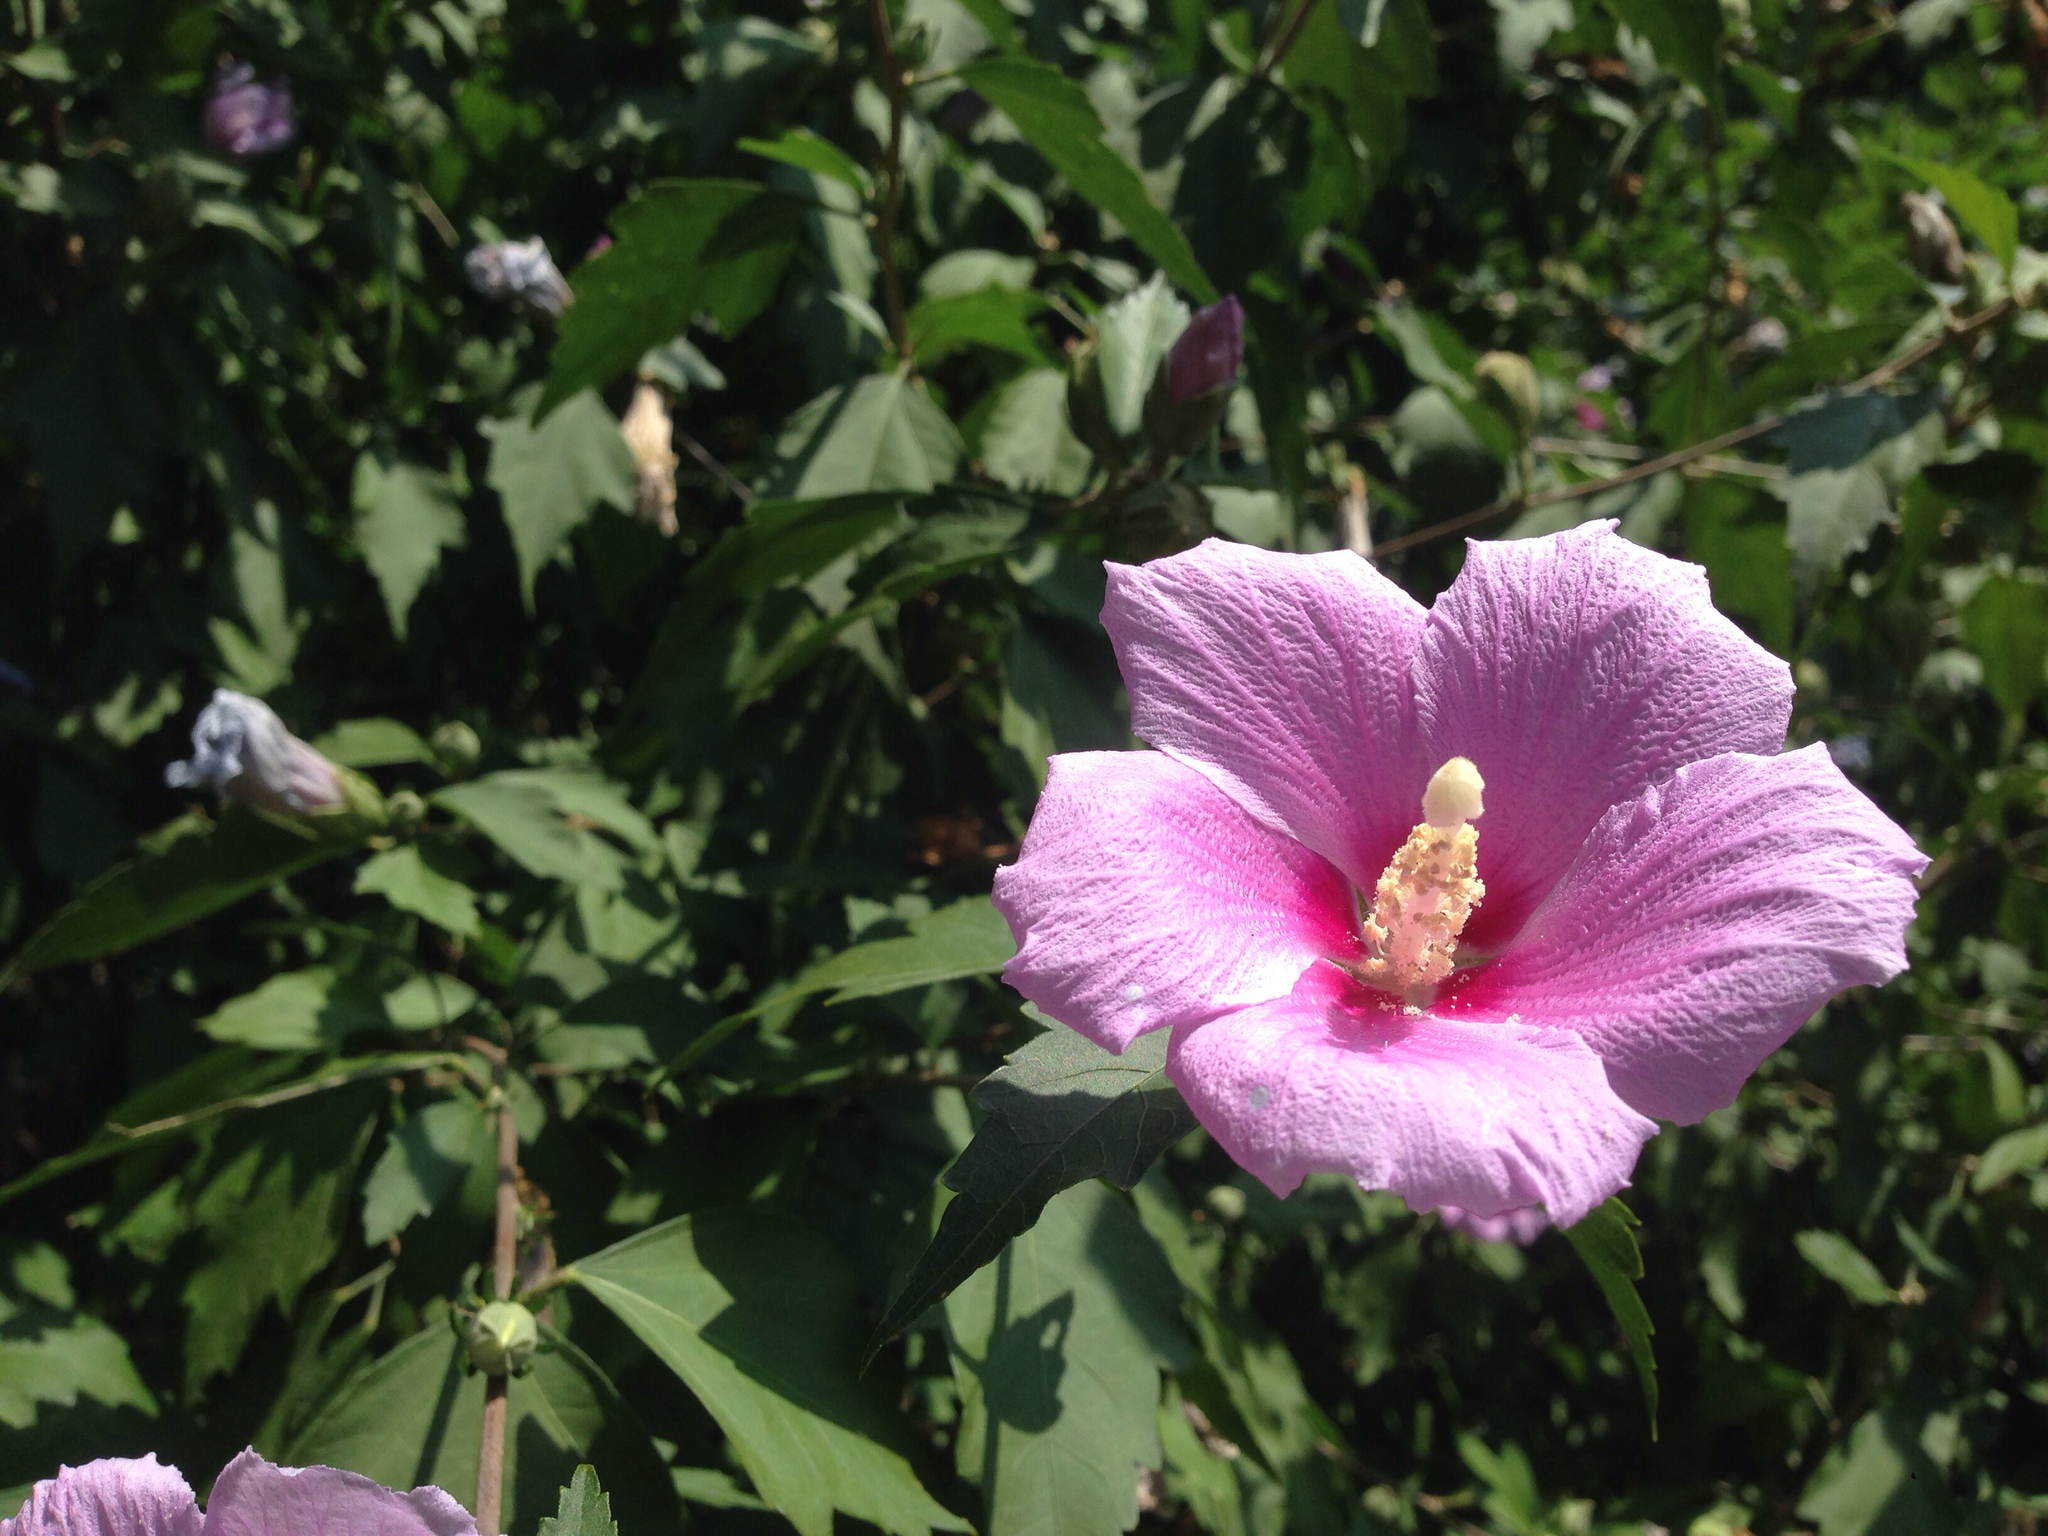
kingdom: Plantae
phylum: Tracheophyta
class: Magnoliopsida
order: Malvales
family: Malvaceae
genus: Hibiscus
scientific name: Hibiscus syriacus
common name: Syrian ketmia
